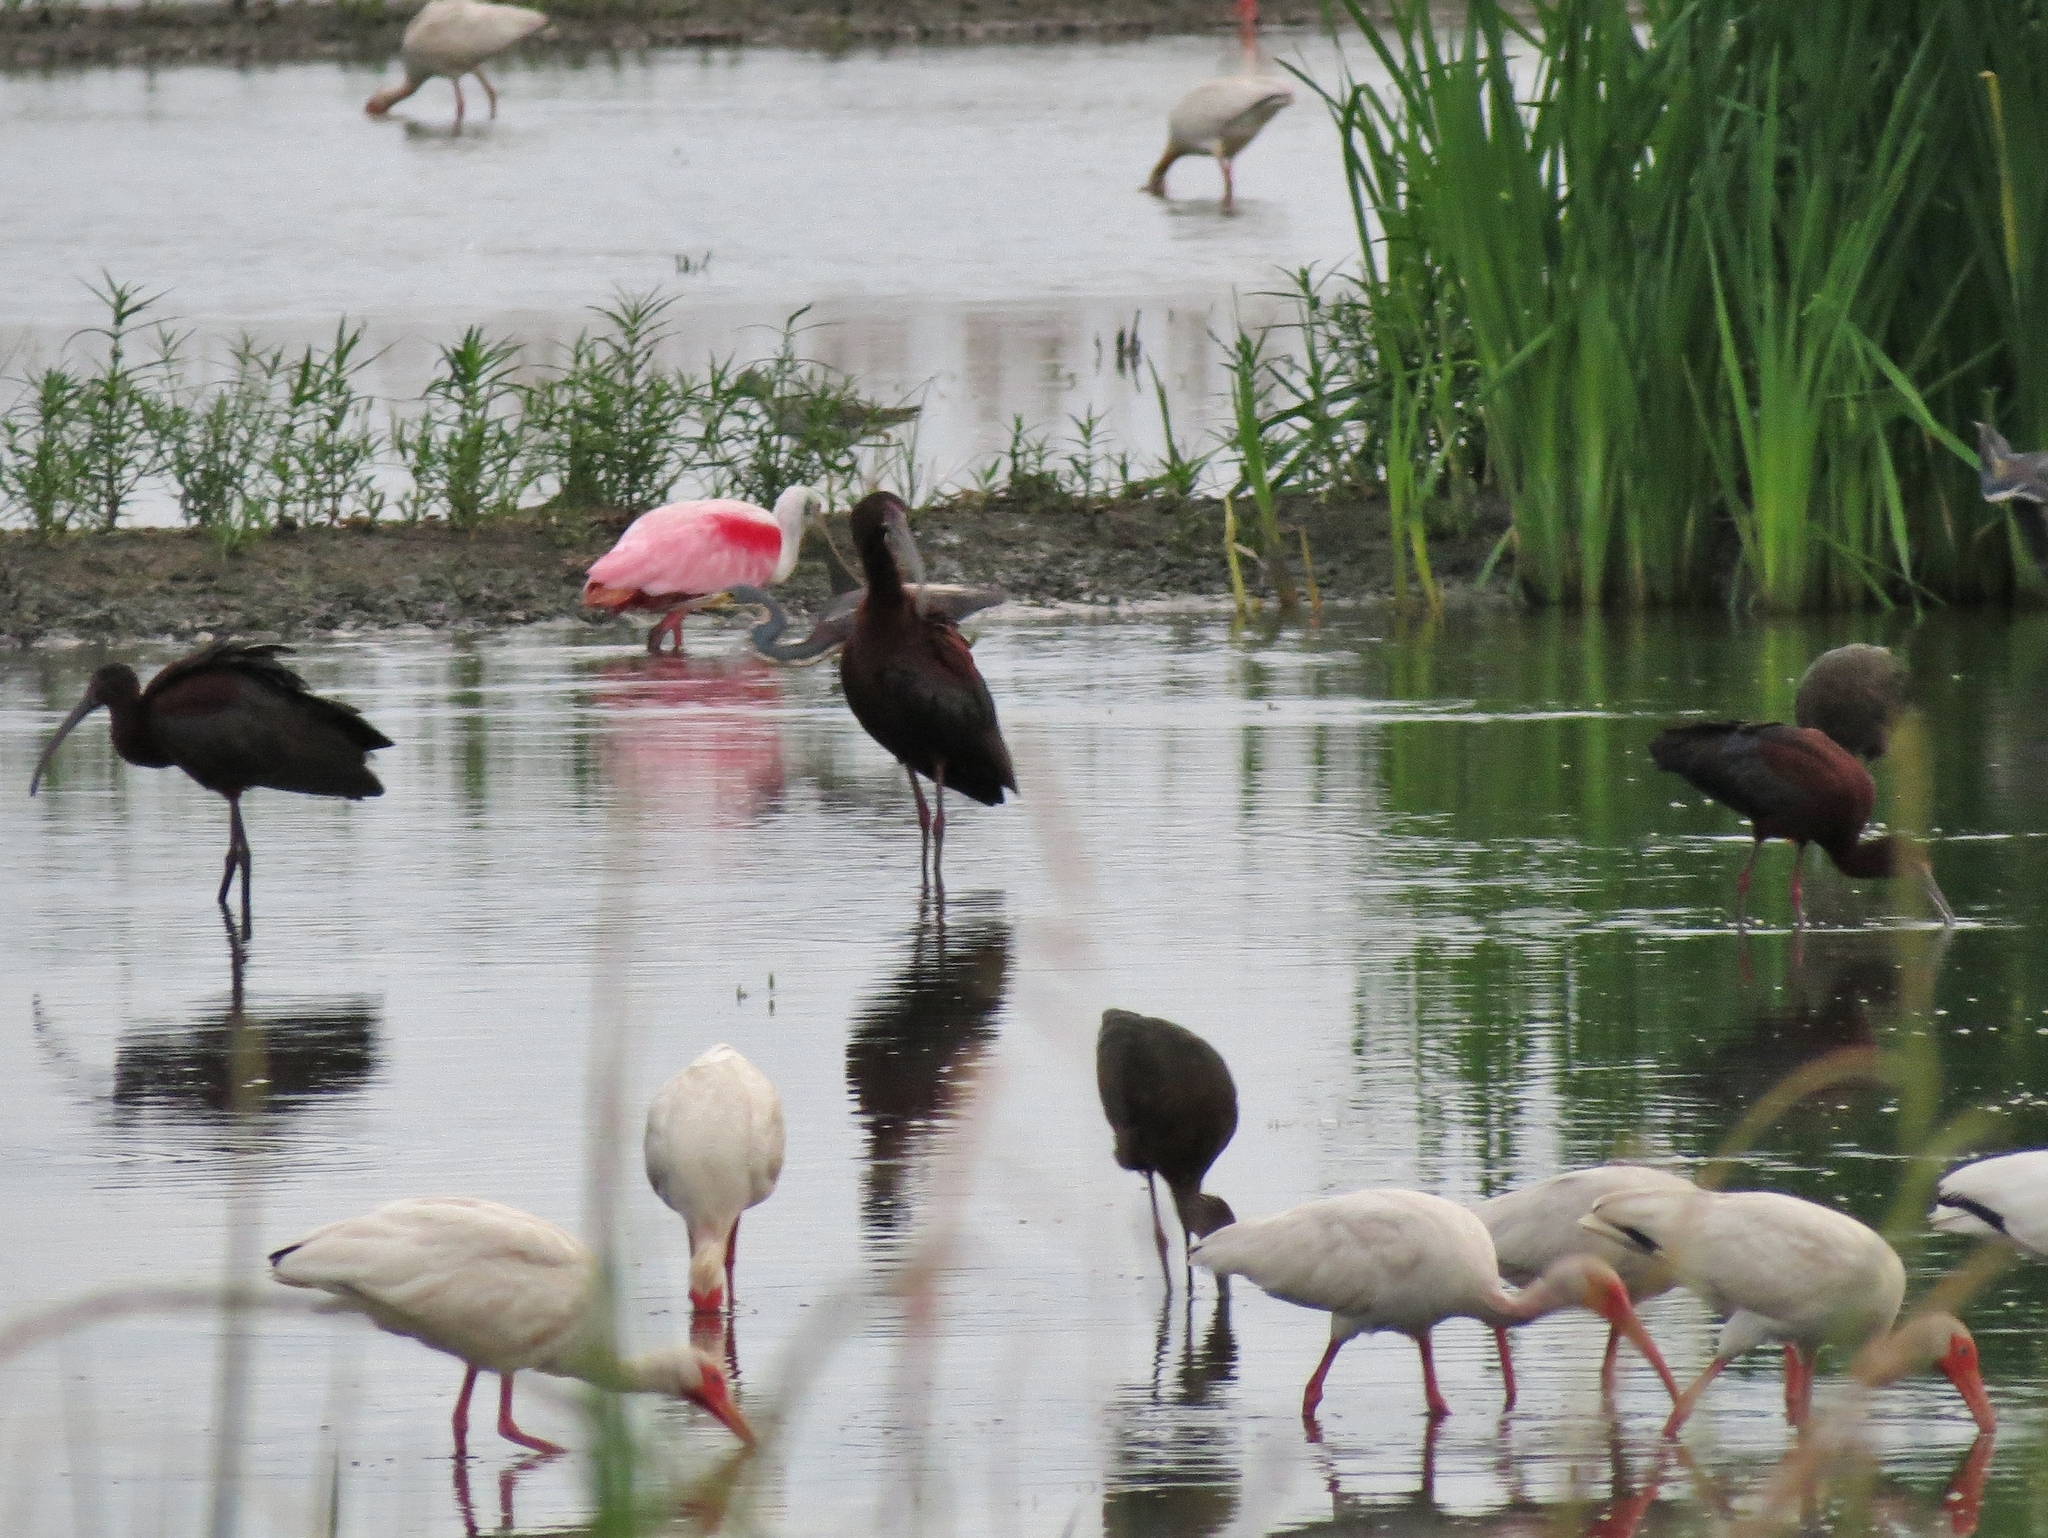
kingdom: Animalia
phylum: Chordata
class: Aves
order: Pelecaniformes
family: Threskiornithidae
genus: Plegadis
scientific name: Plegadis chihi
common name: White-faced ibis
